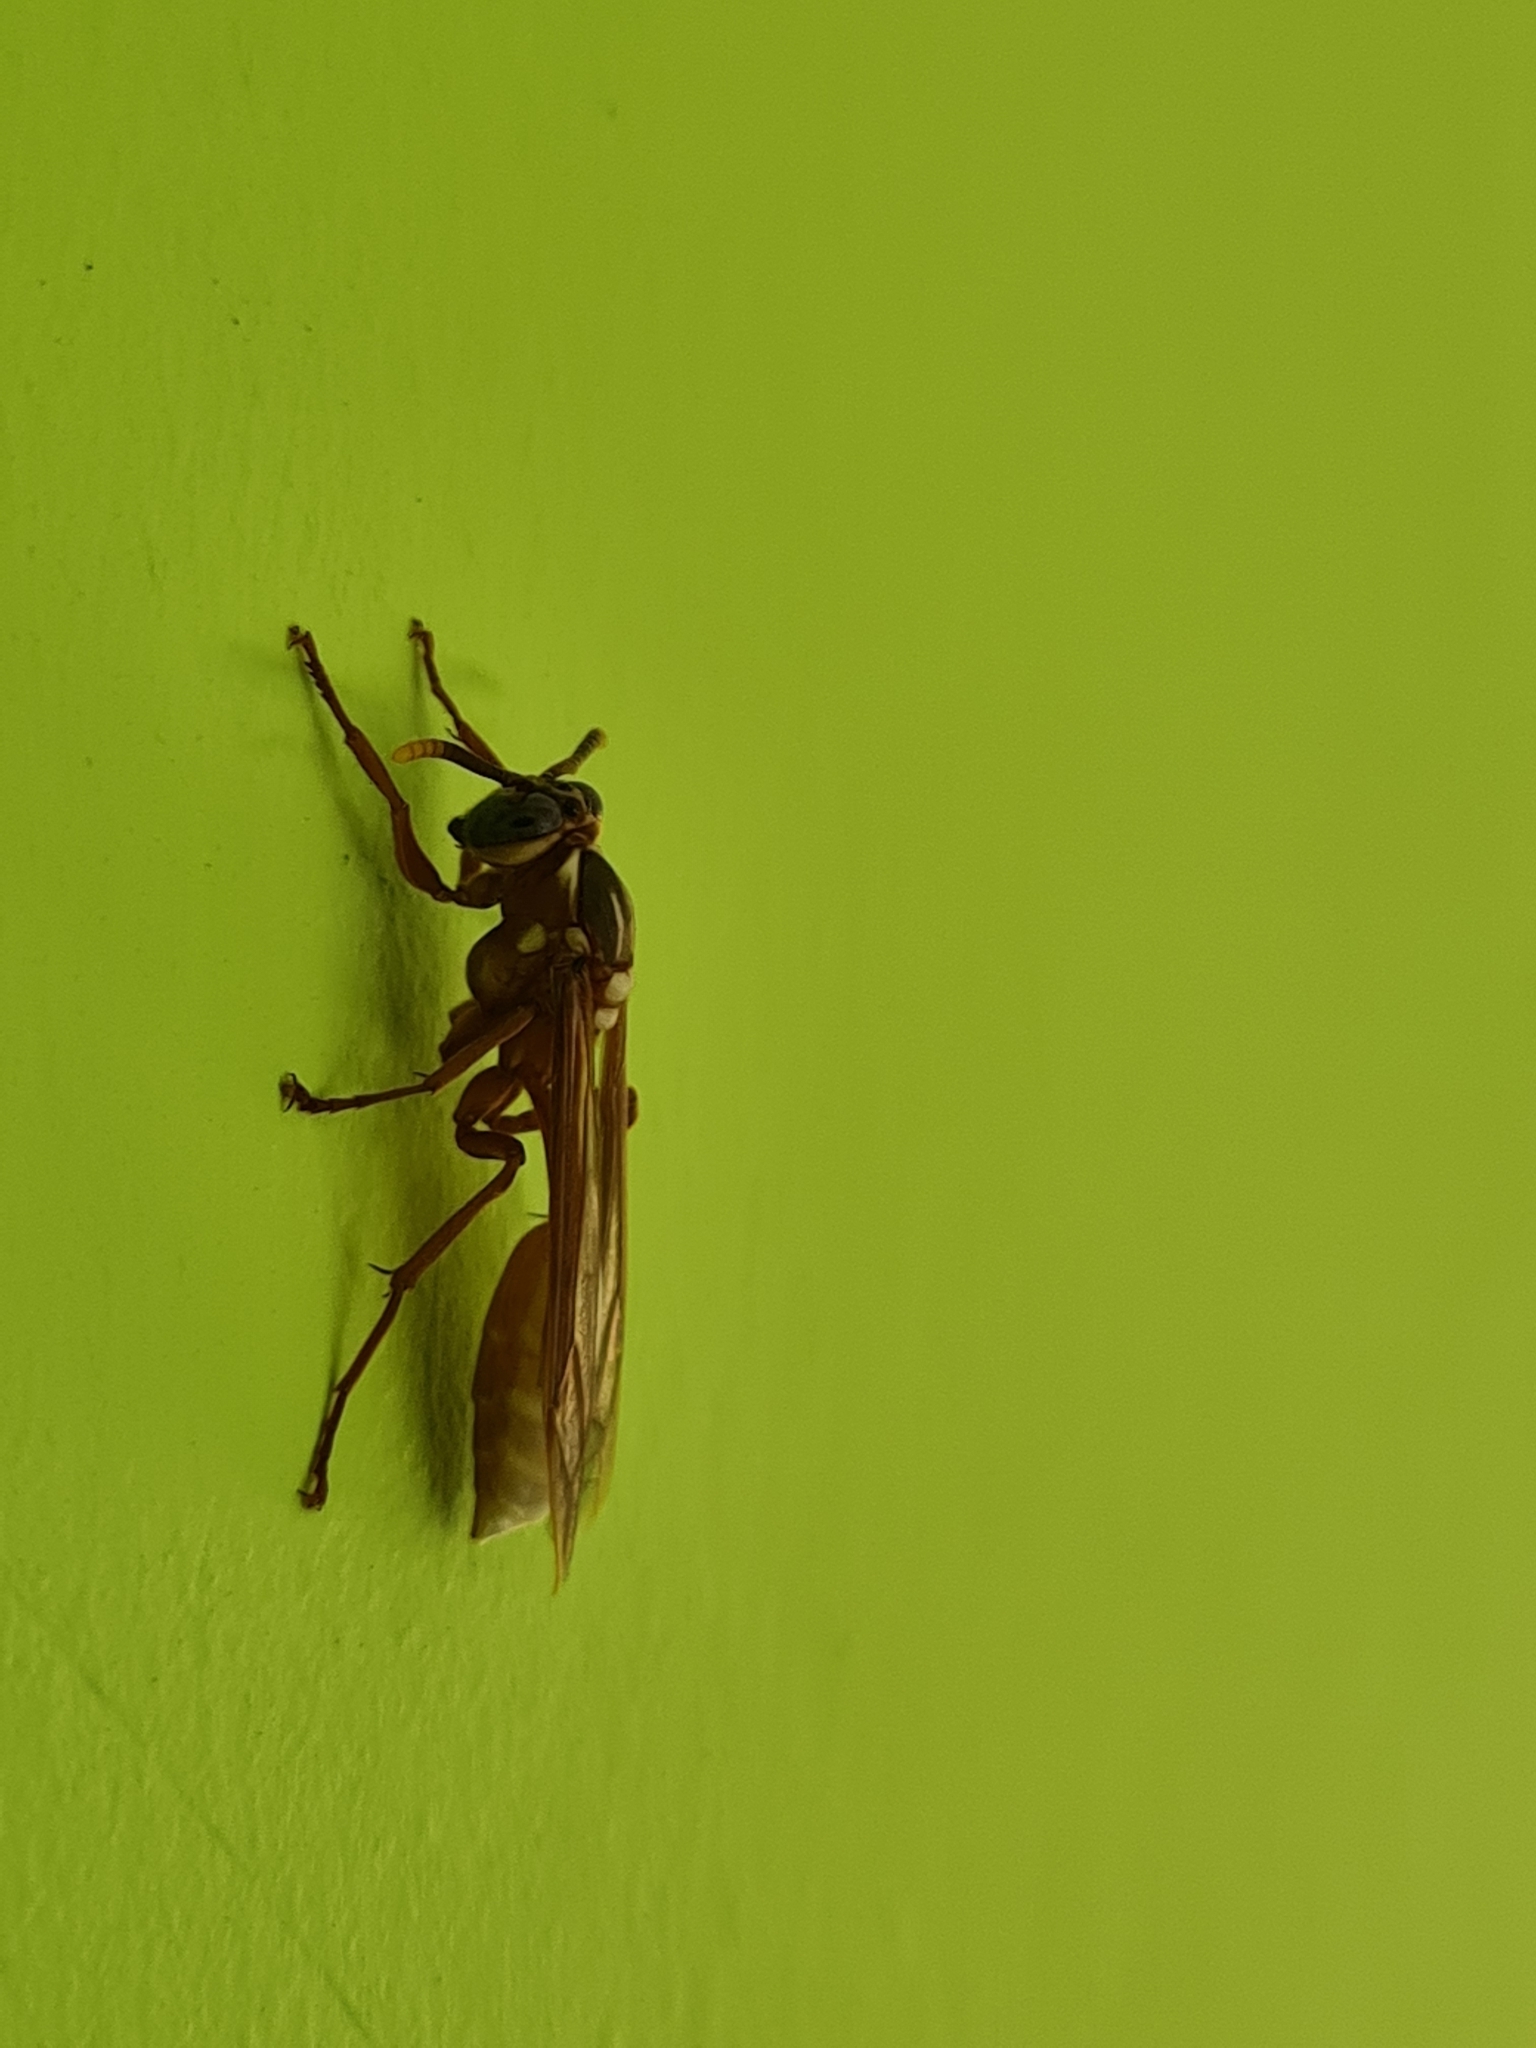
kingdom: Animalia
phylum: Arthropoda
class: Insecta
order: Hymenoptera
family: Vespidae
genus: Apoica
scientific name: Apoica pallens
